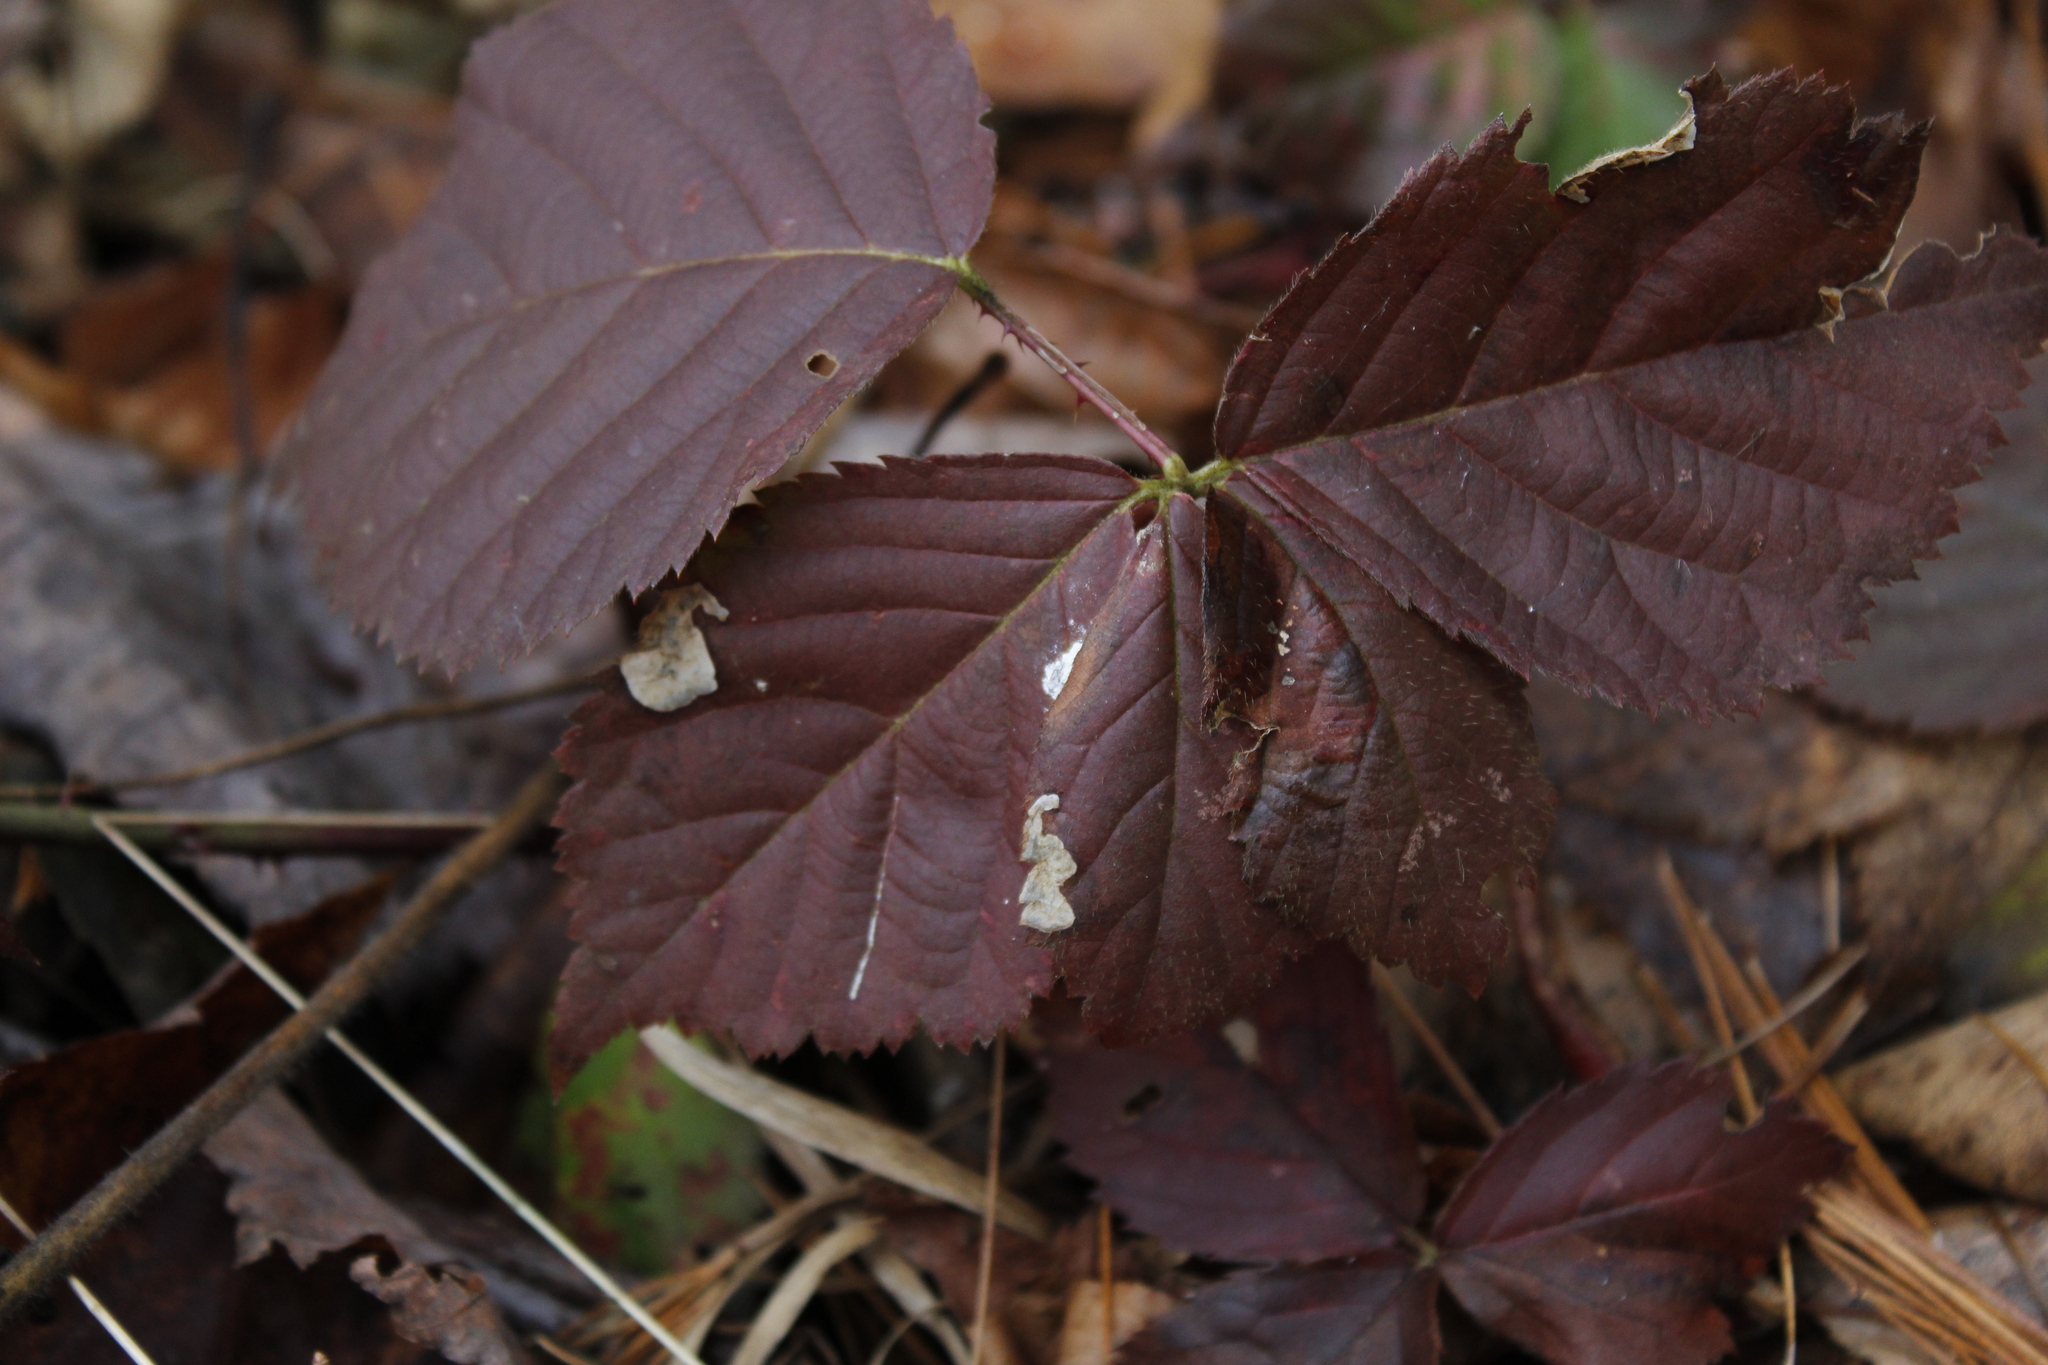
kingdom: Animalia
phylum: Arthropoda
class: Insecta
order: Hymenoptera
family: Tenthredinidae
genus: Metallus
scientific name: Metallus rohweri
